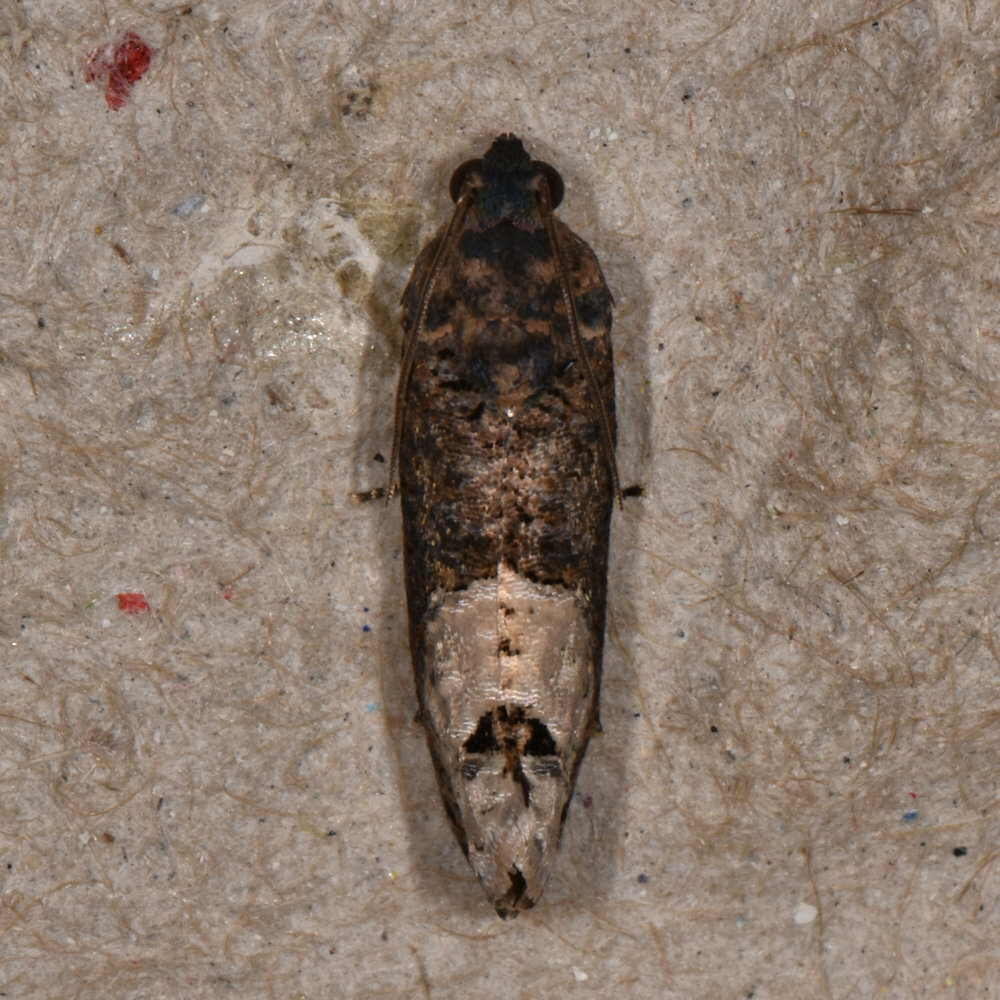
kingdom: Animalia
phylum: Arthropoda
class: Insecta
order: Lepidoptera
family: Tortricidae
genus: Ecdytolopha
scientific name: Ecdytolopha insiticiana
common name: Locust twig borer moth
